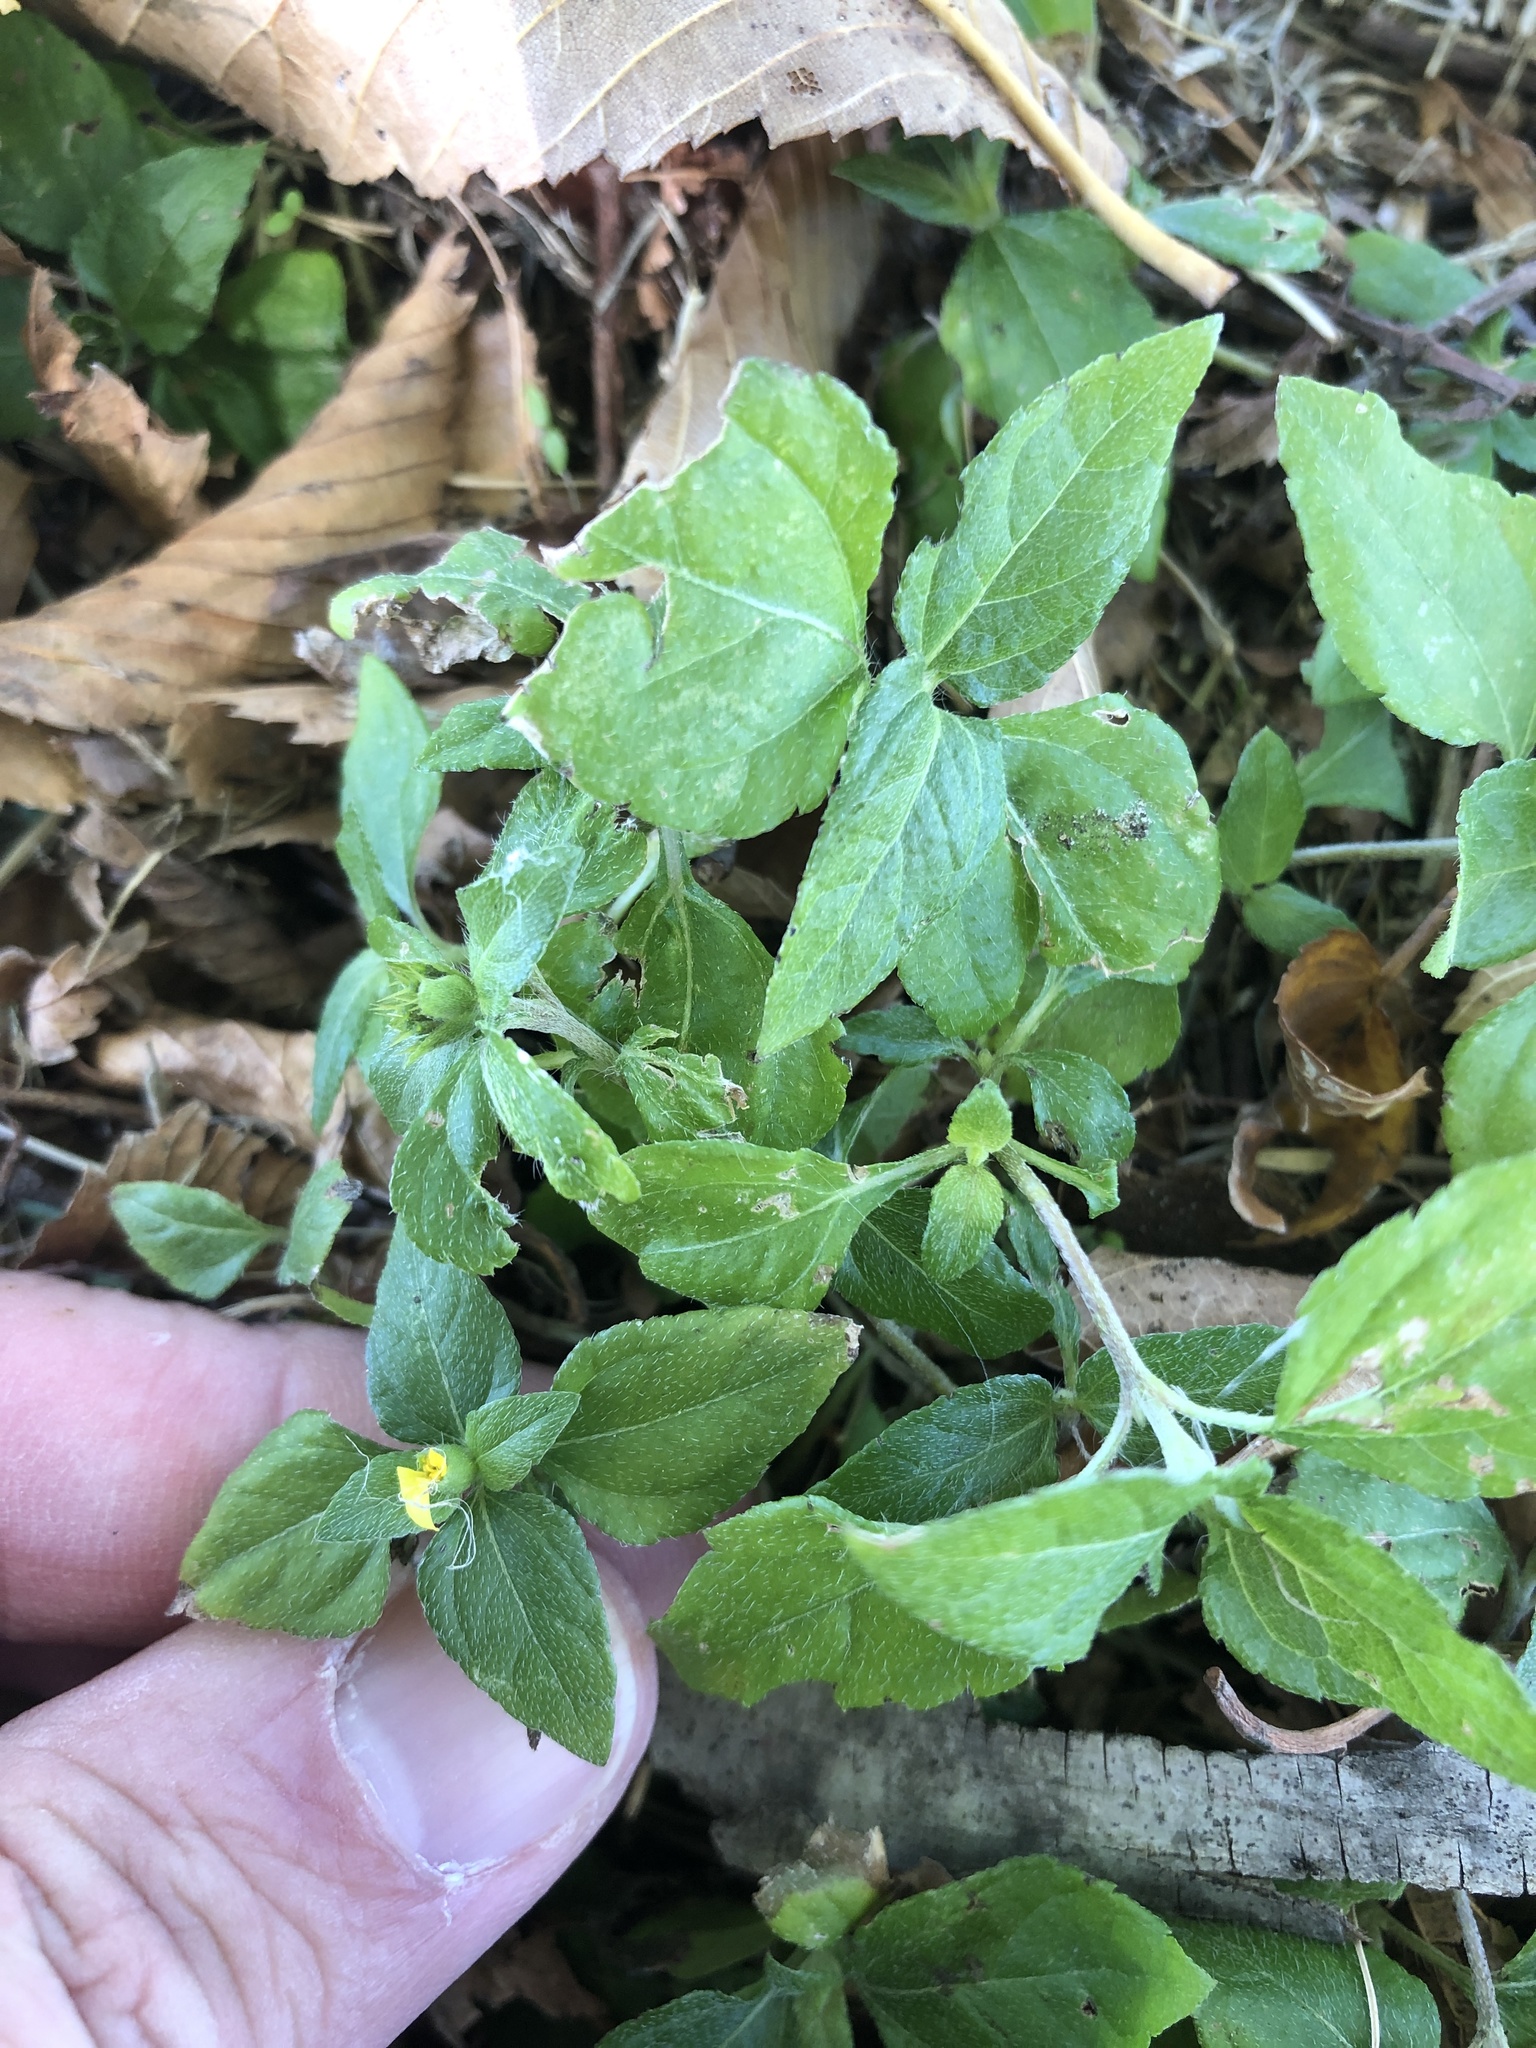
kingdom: Plantae
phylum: Tracheophyta
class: Magnoliopsida
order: Asterales
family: Asteraceae
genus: Calyptocarpus
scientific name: Calyptocarpus vialis
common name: Straggler daisy
